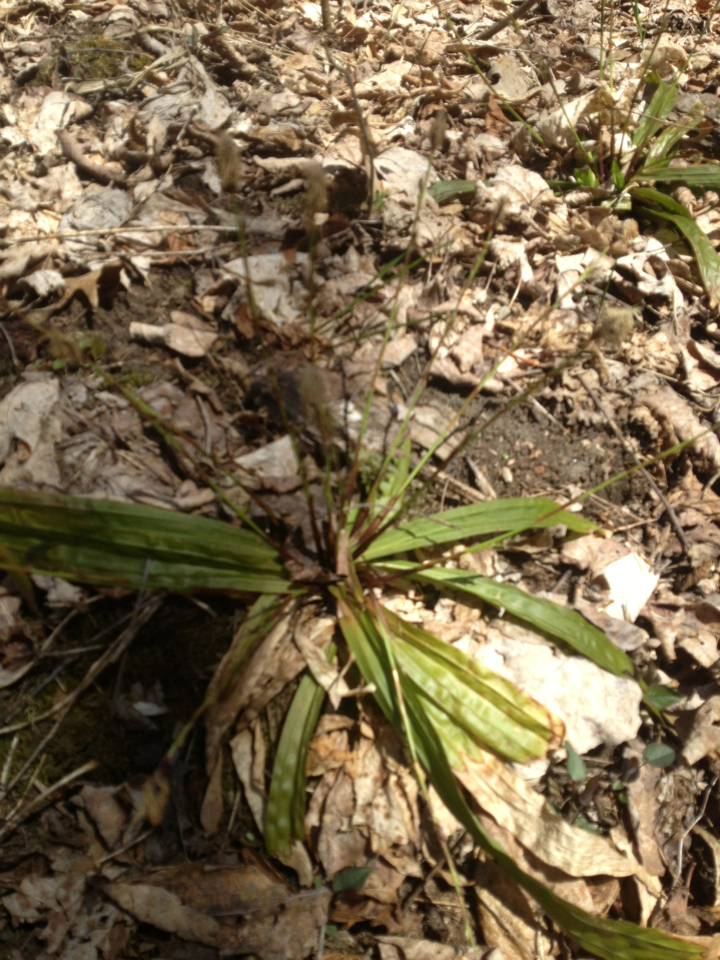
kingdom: Plantae
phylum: Tracheophyta
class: Liliopsida
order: Poales
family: Cyperaceae
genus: Carex
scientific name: Carex plantaginea
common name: Plantain-leaved sedge
